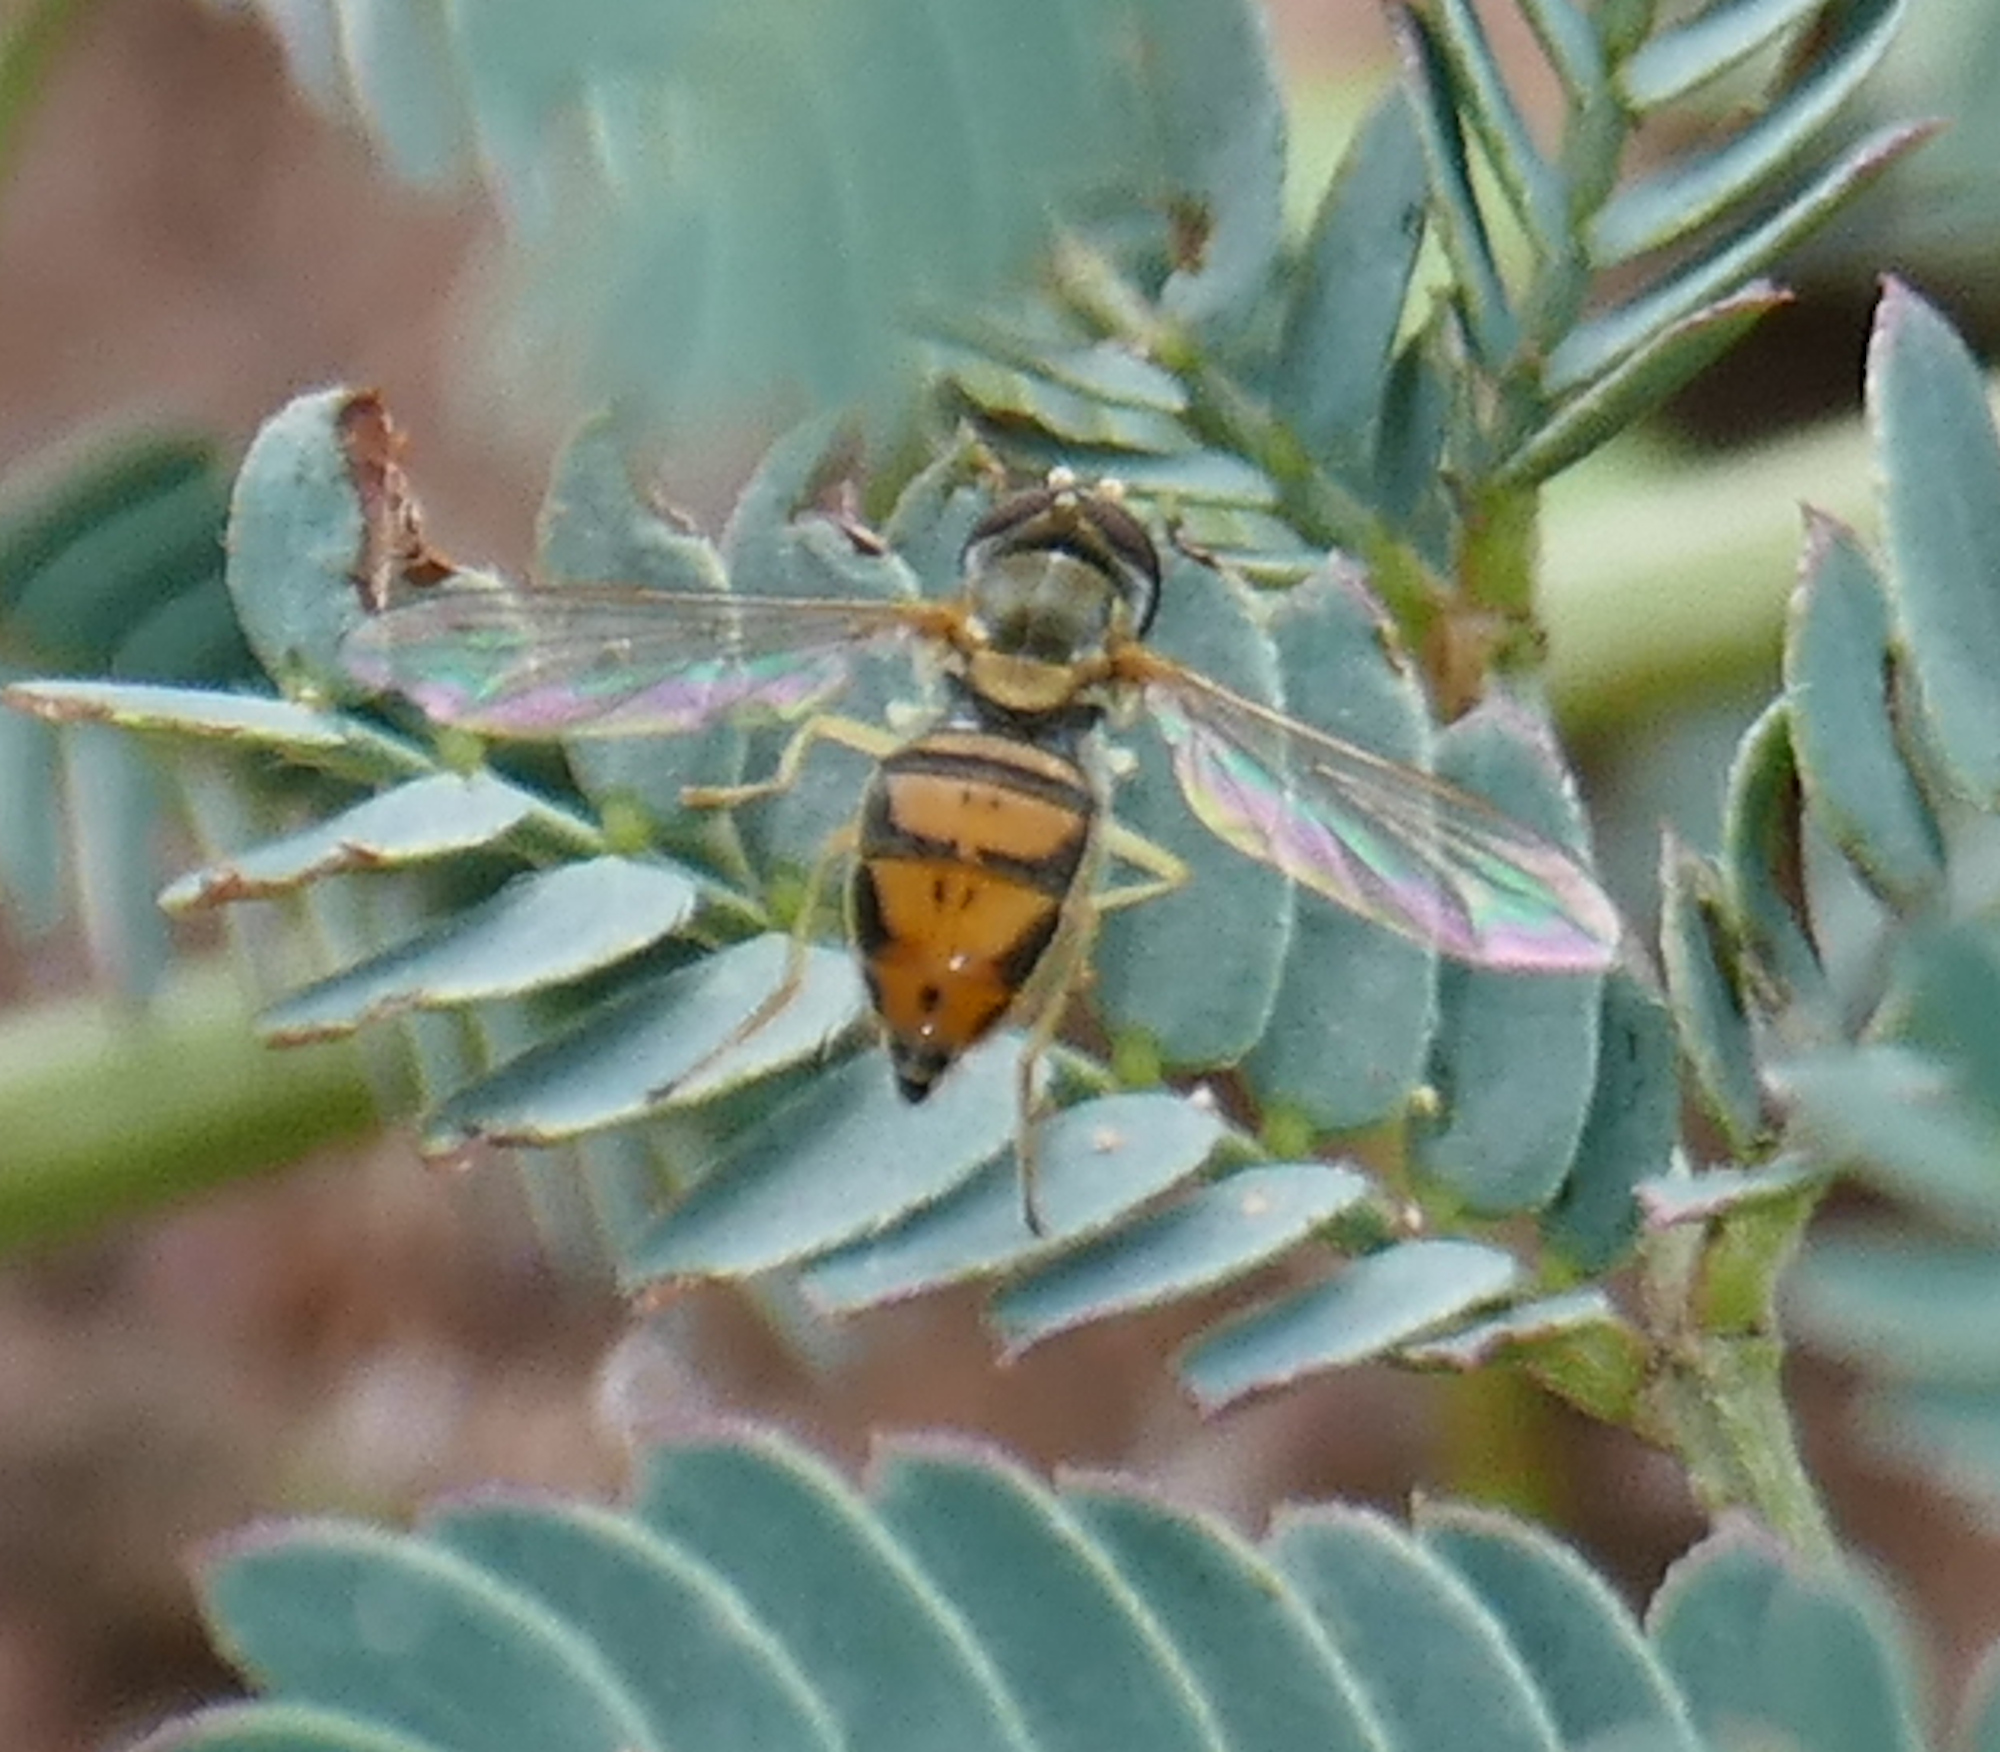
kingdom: Animalia
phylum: Arthropoda
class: Insecta
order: Diptera
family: Syrphidae
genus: Toxomerus
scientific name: Toxomerus marginatus
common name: Syrphid fly
